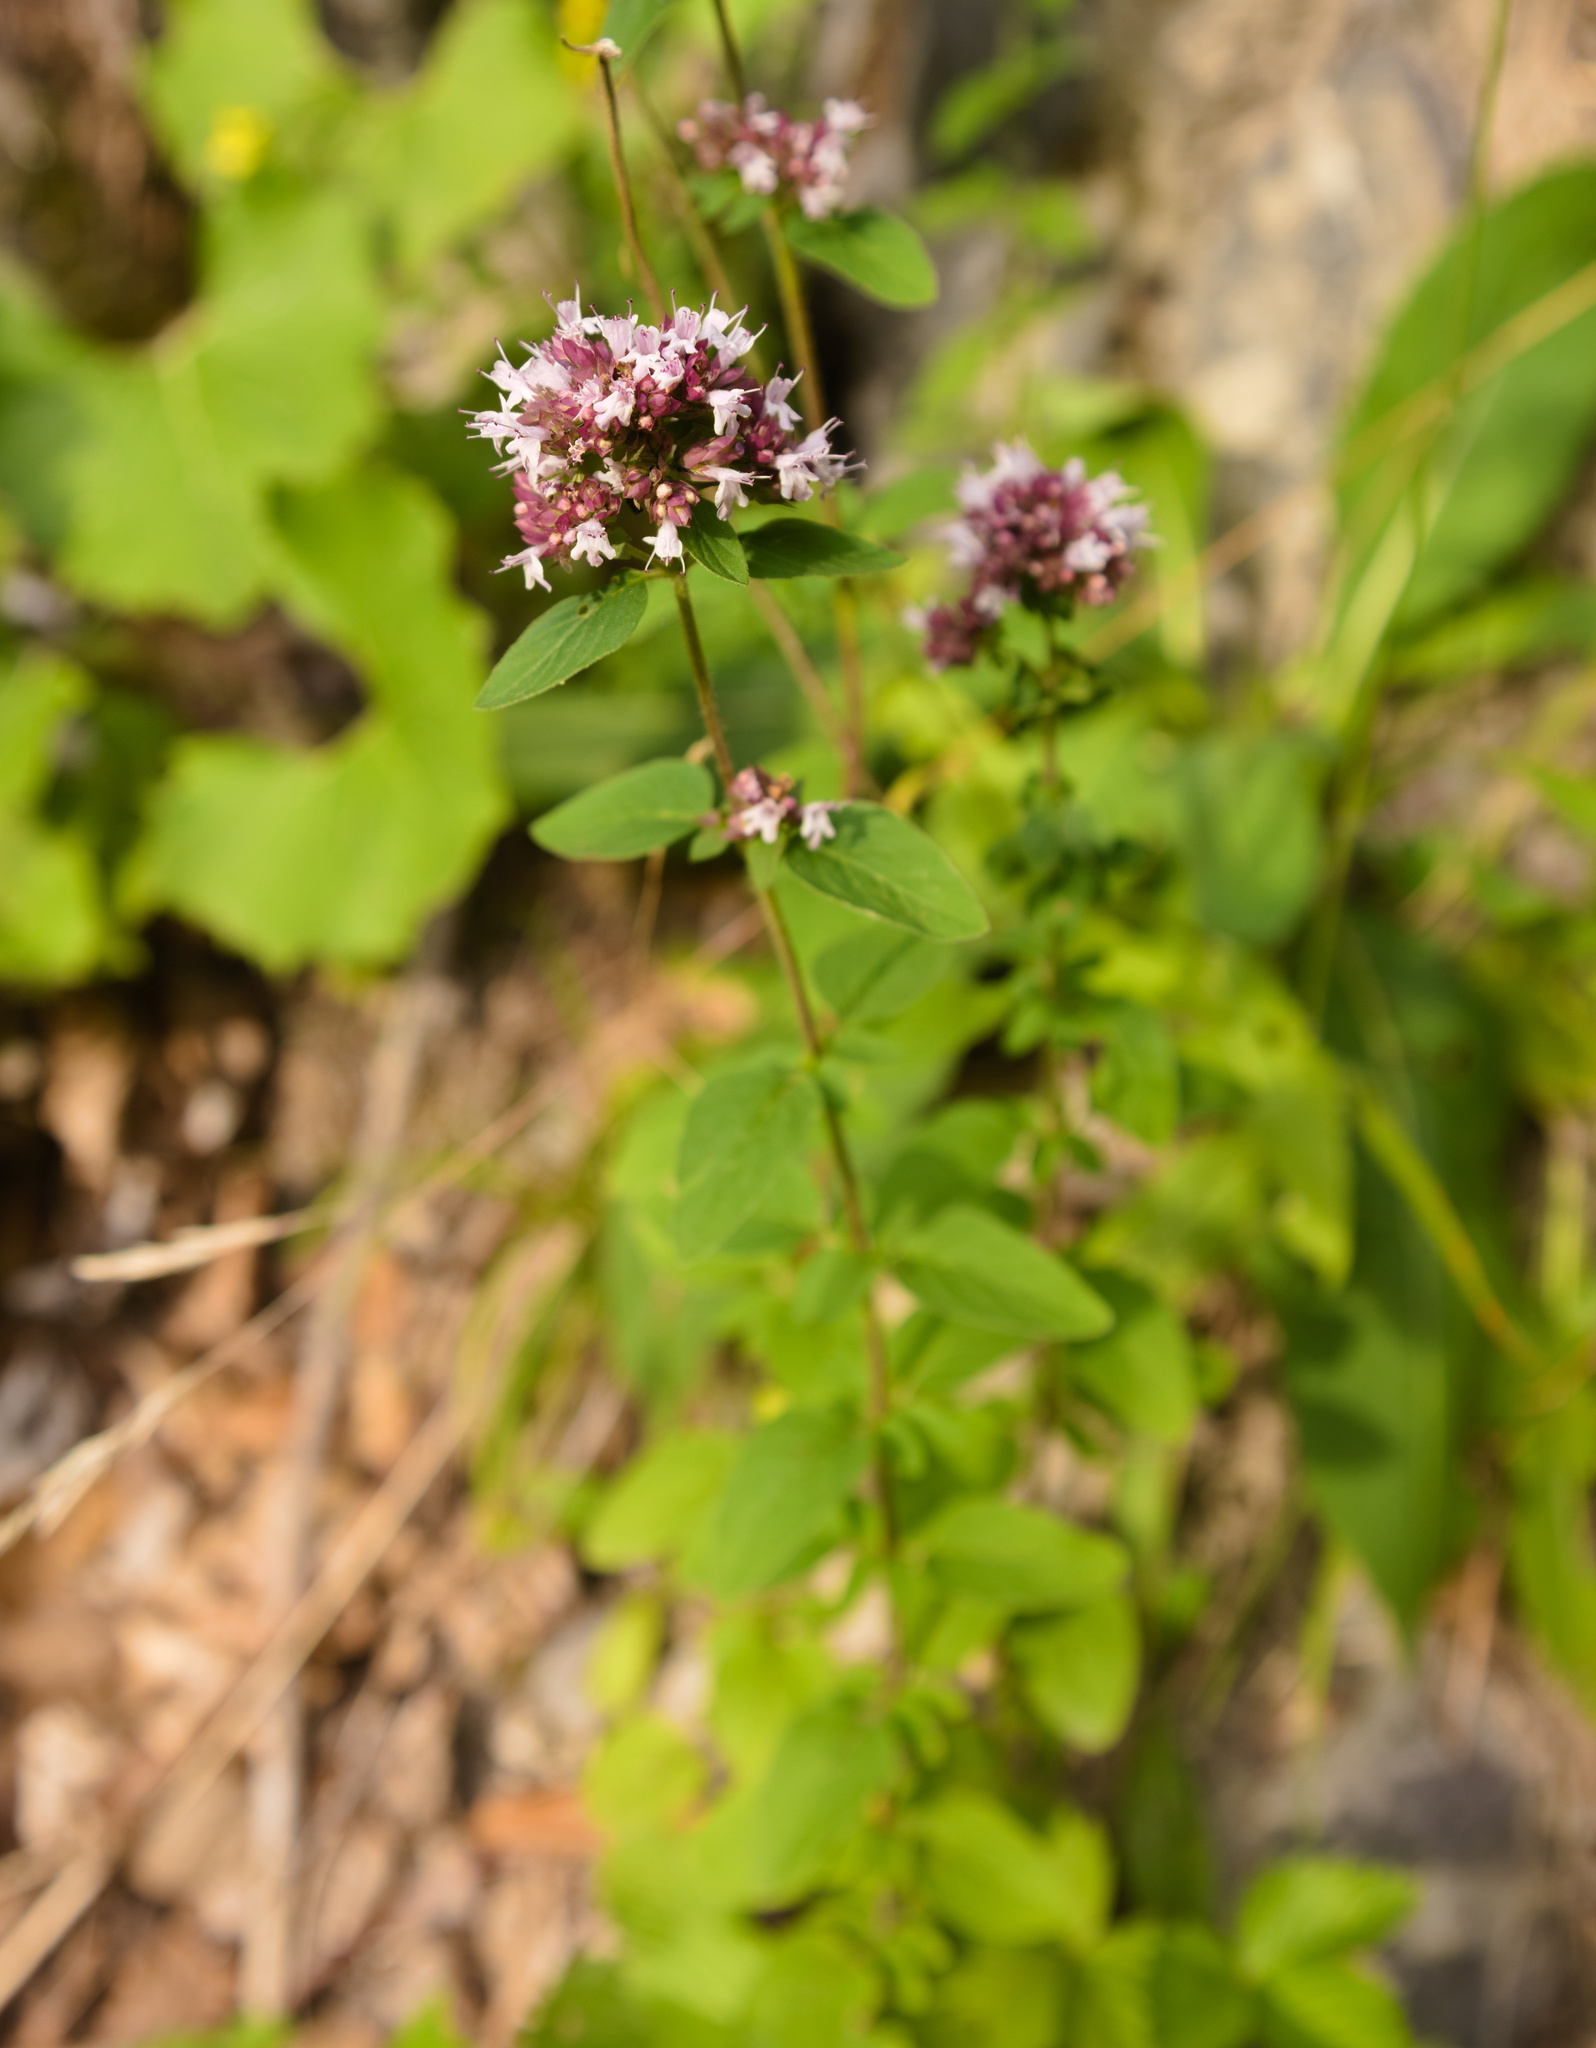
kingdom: Plantae
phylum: Tracheophyta
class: Magnoliopsida
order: Lamiales
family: Lamiaceae
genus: Origanum
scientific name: Origanum vulgare
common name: Wild marjoram
